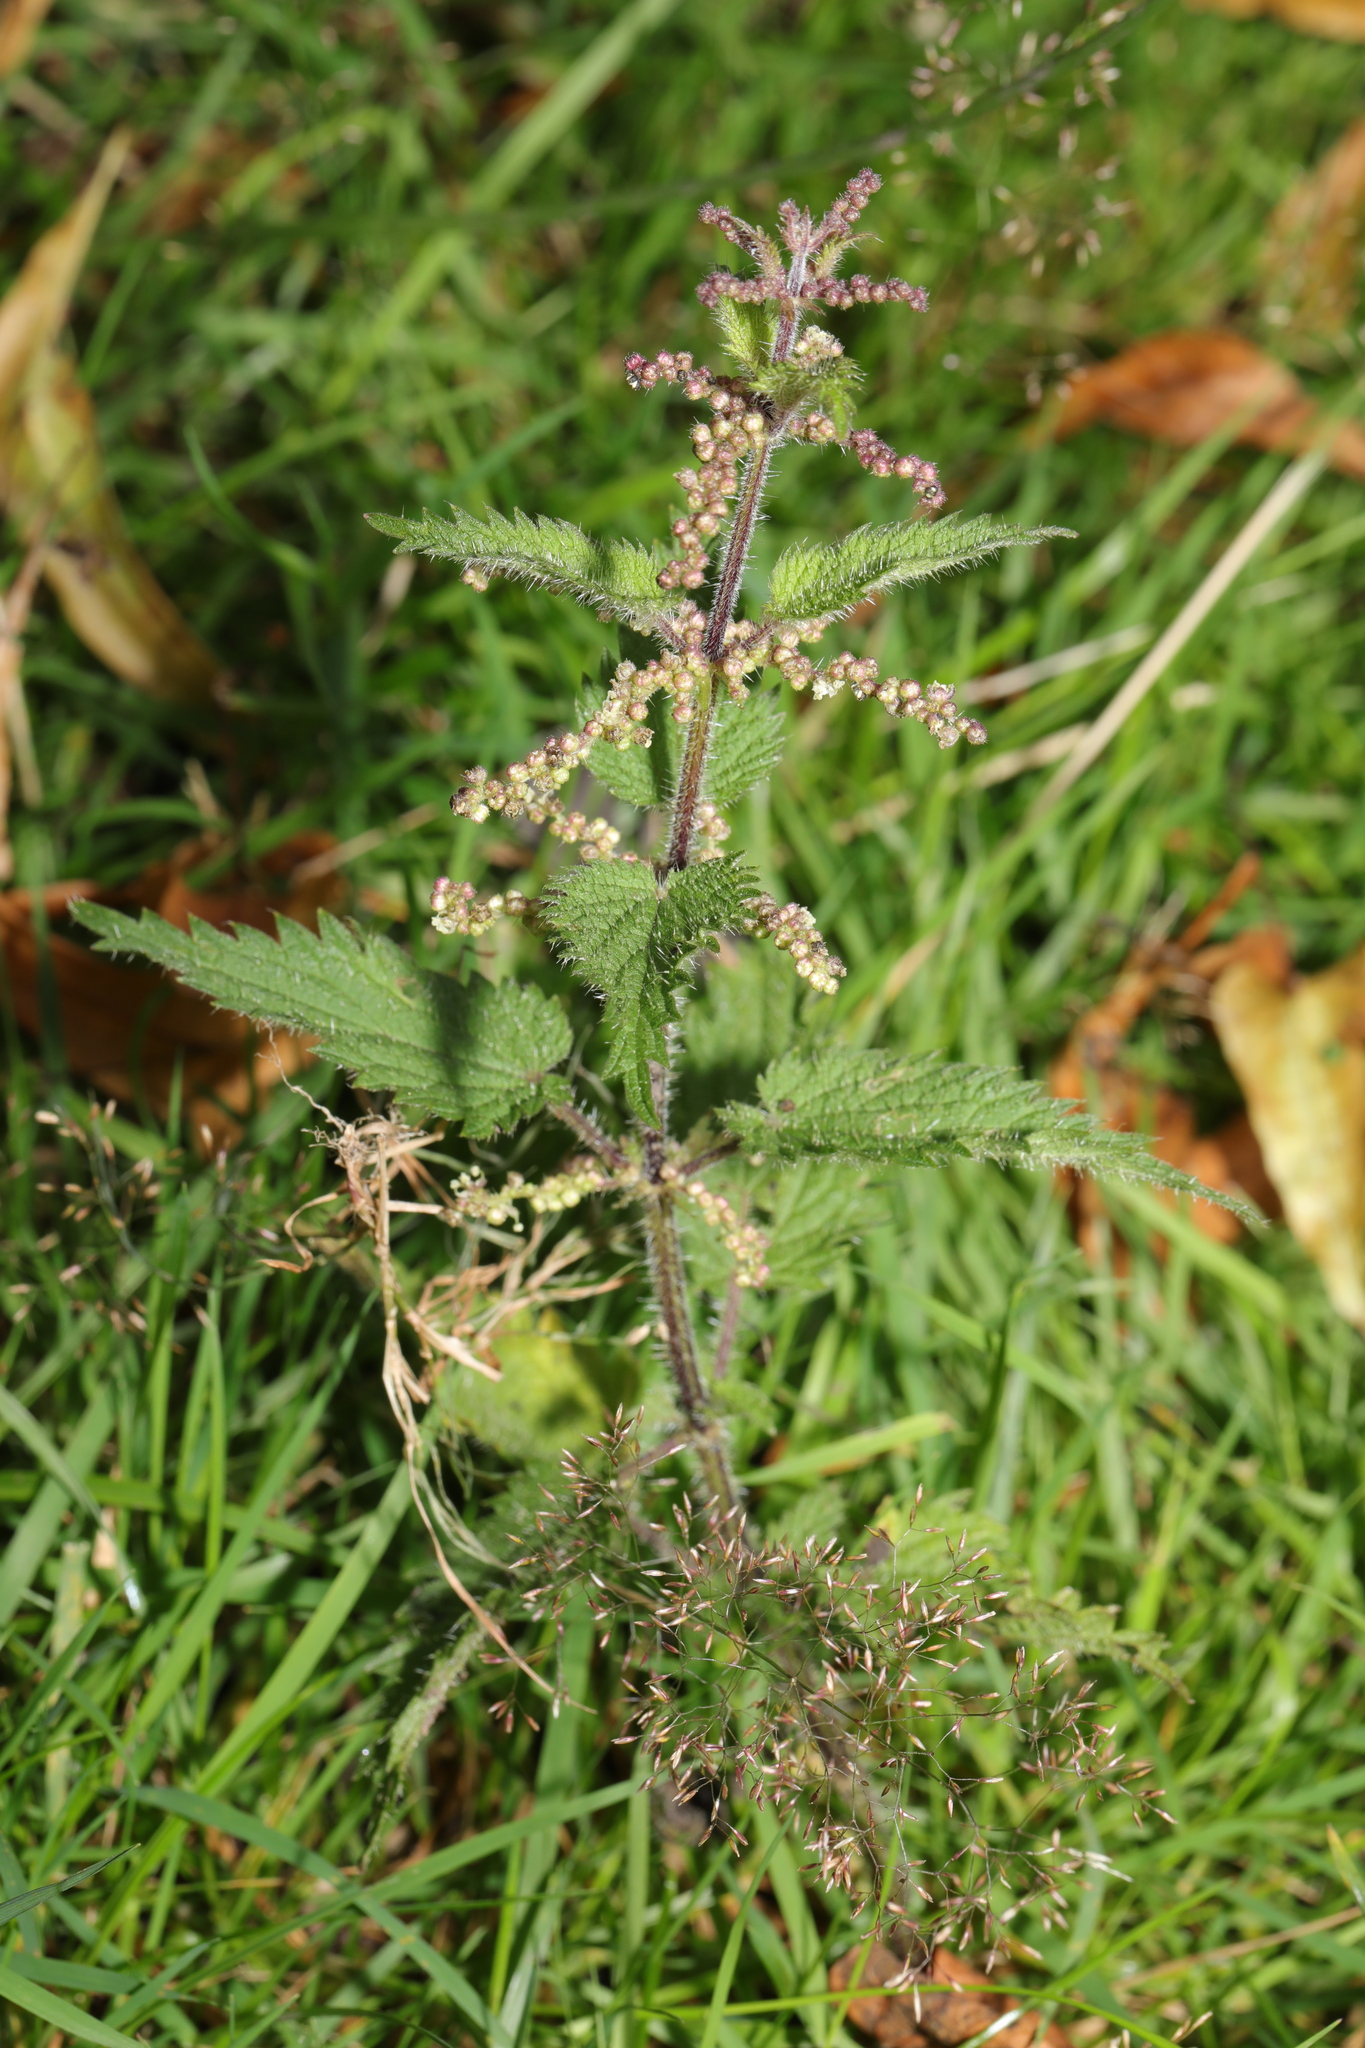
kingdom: Plantae
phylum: Tracheophyta
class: Magnoliopsida
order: Rosales
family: Urticaceae
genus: Urtica
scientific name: Urtica dioica
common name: Common nettle
